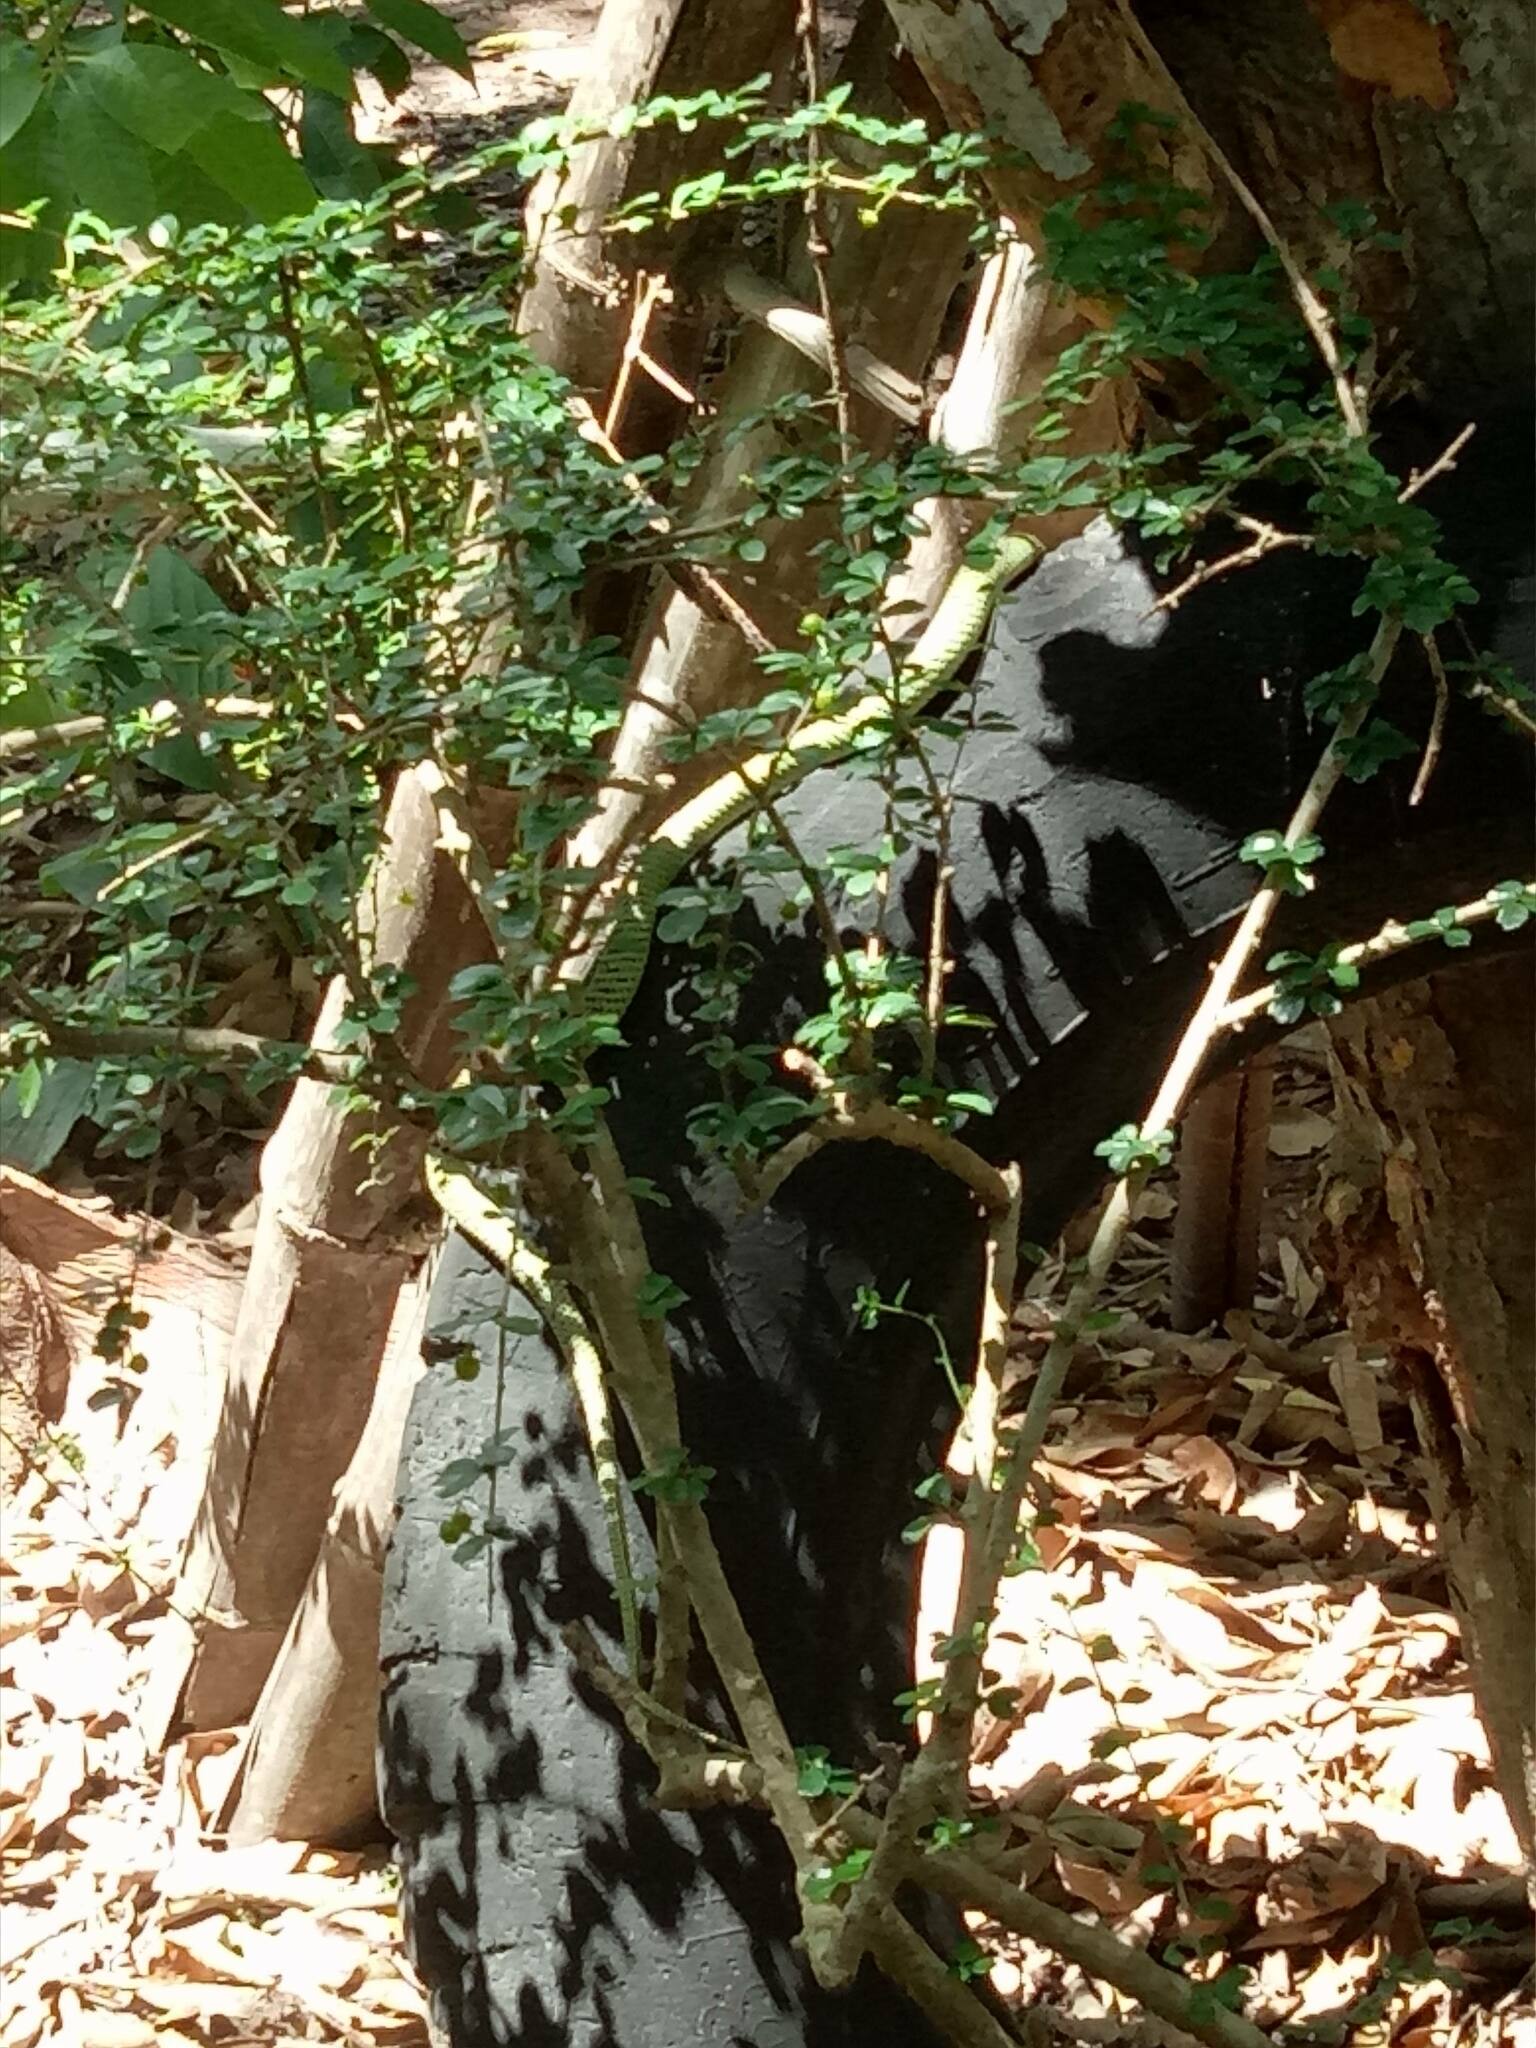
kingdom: Animalia
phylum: Chordata
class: Squamata
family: Colubridae
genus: Chrysopelea
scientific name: Chrysopelea ornata
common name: Golden flying snake
